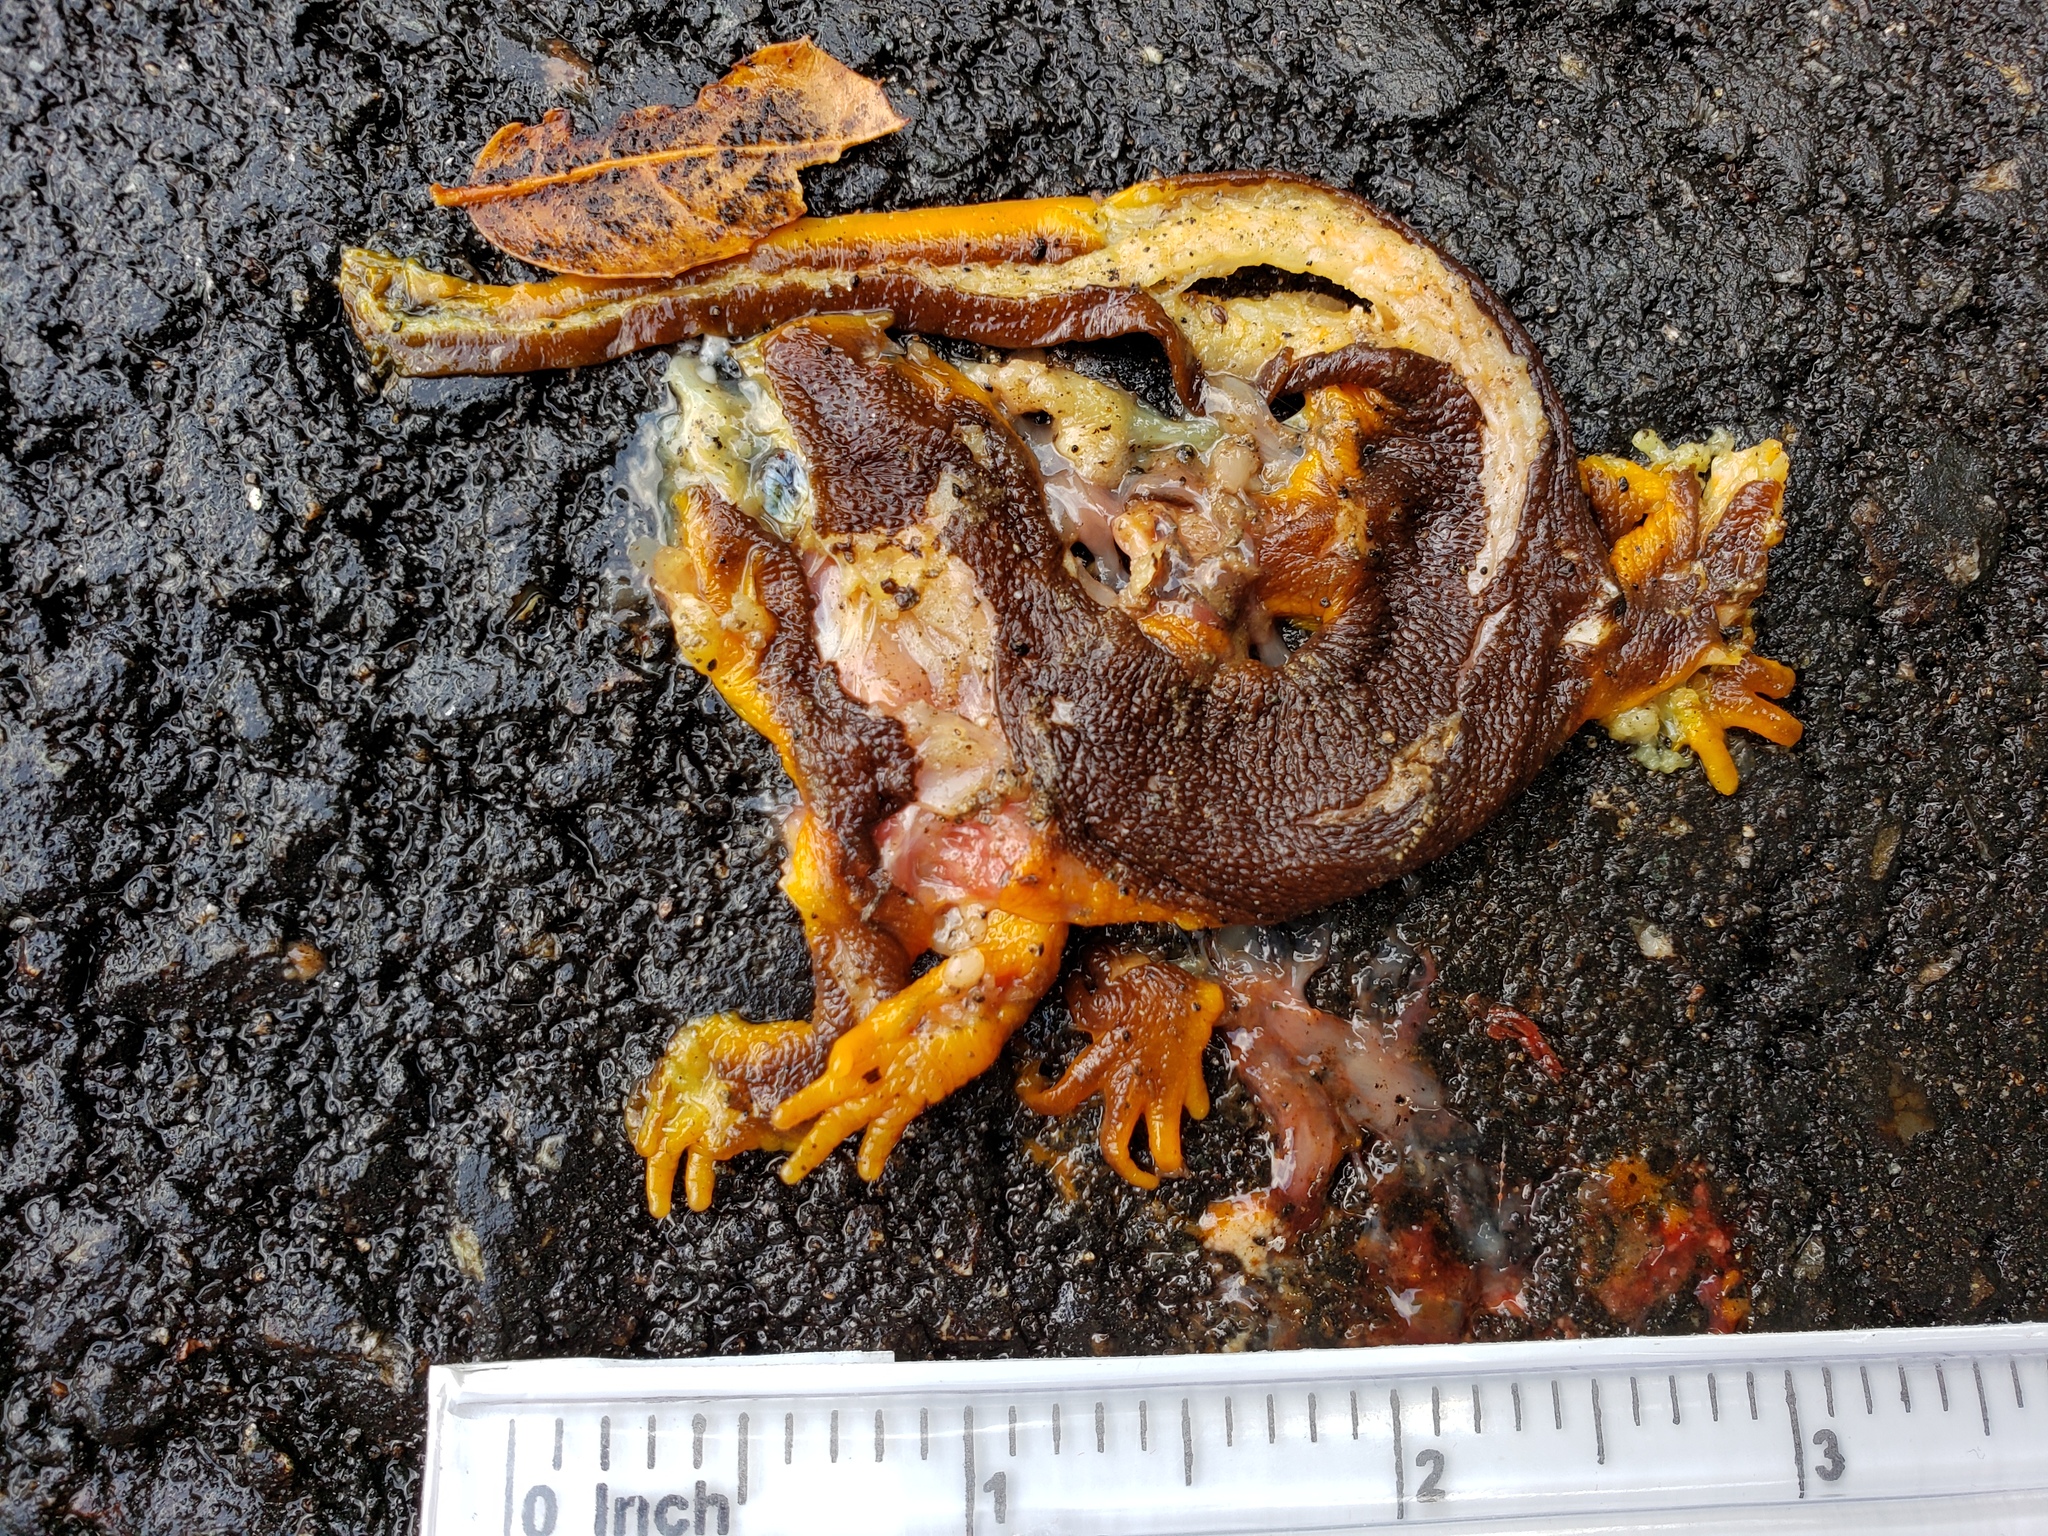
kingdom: Animalia
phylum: Chordata
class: Amphibia
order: Caudata
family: Salamandridae
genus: Taricha
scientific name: Taricha
